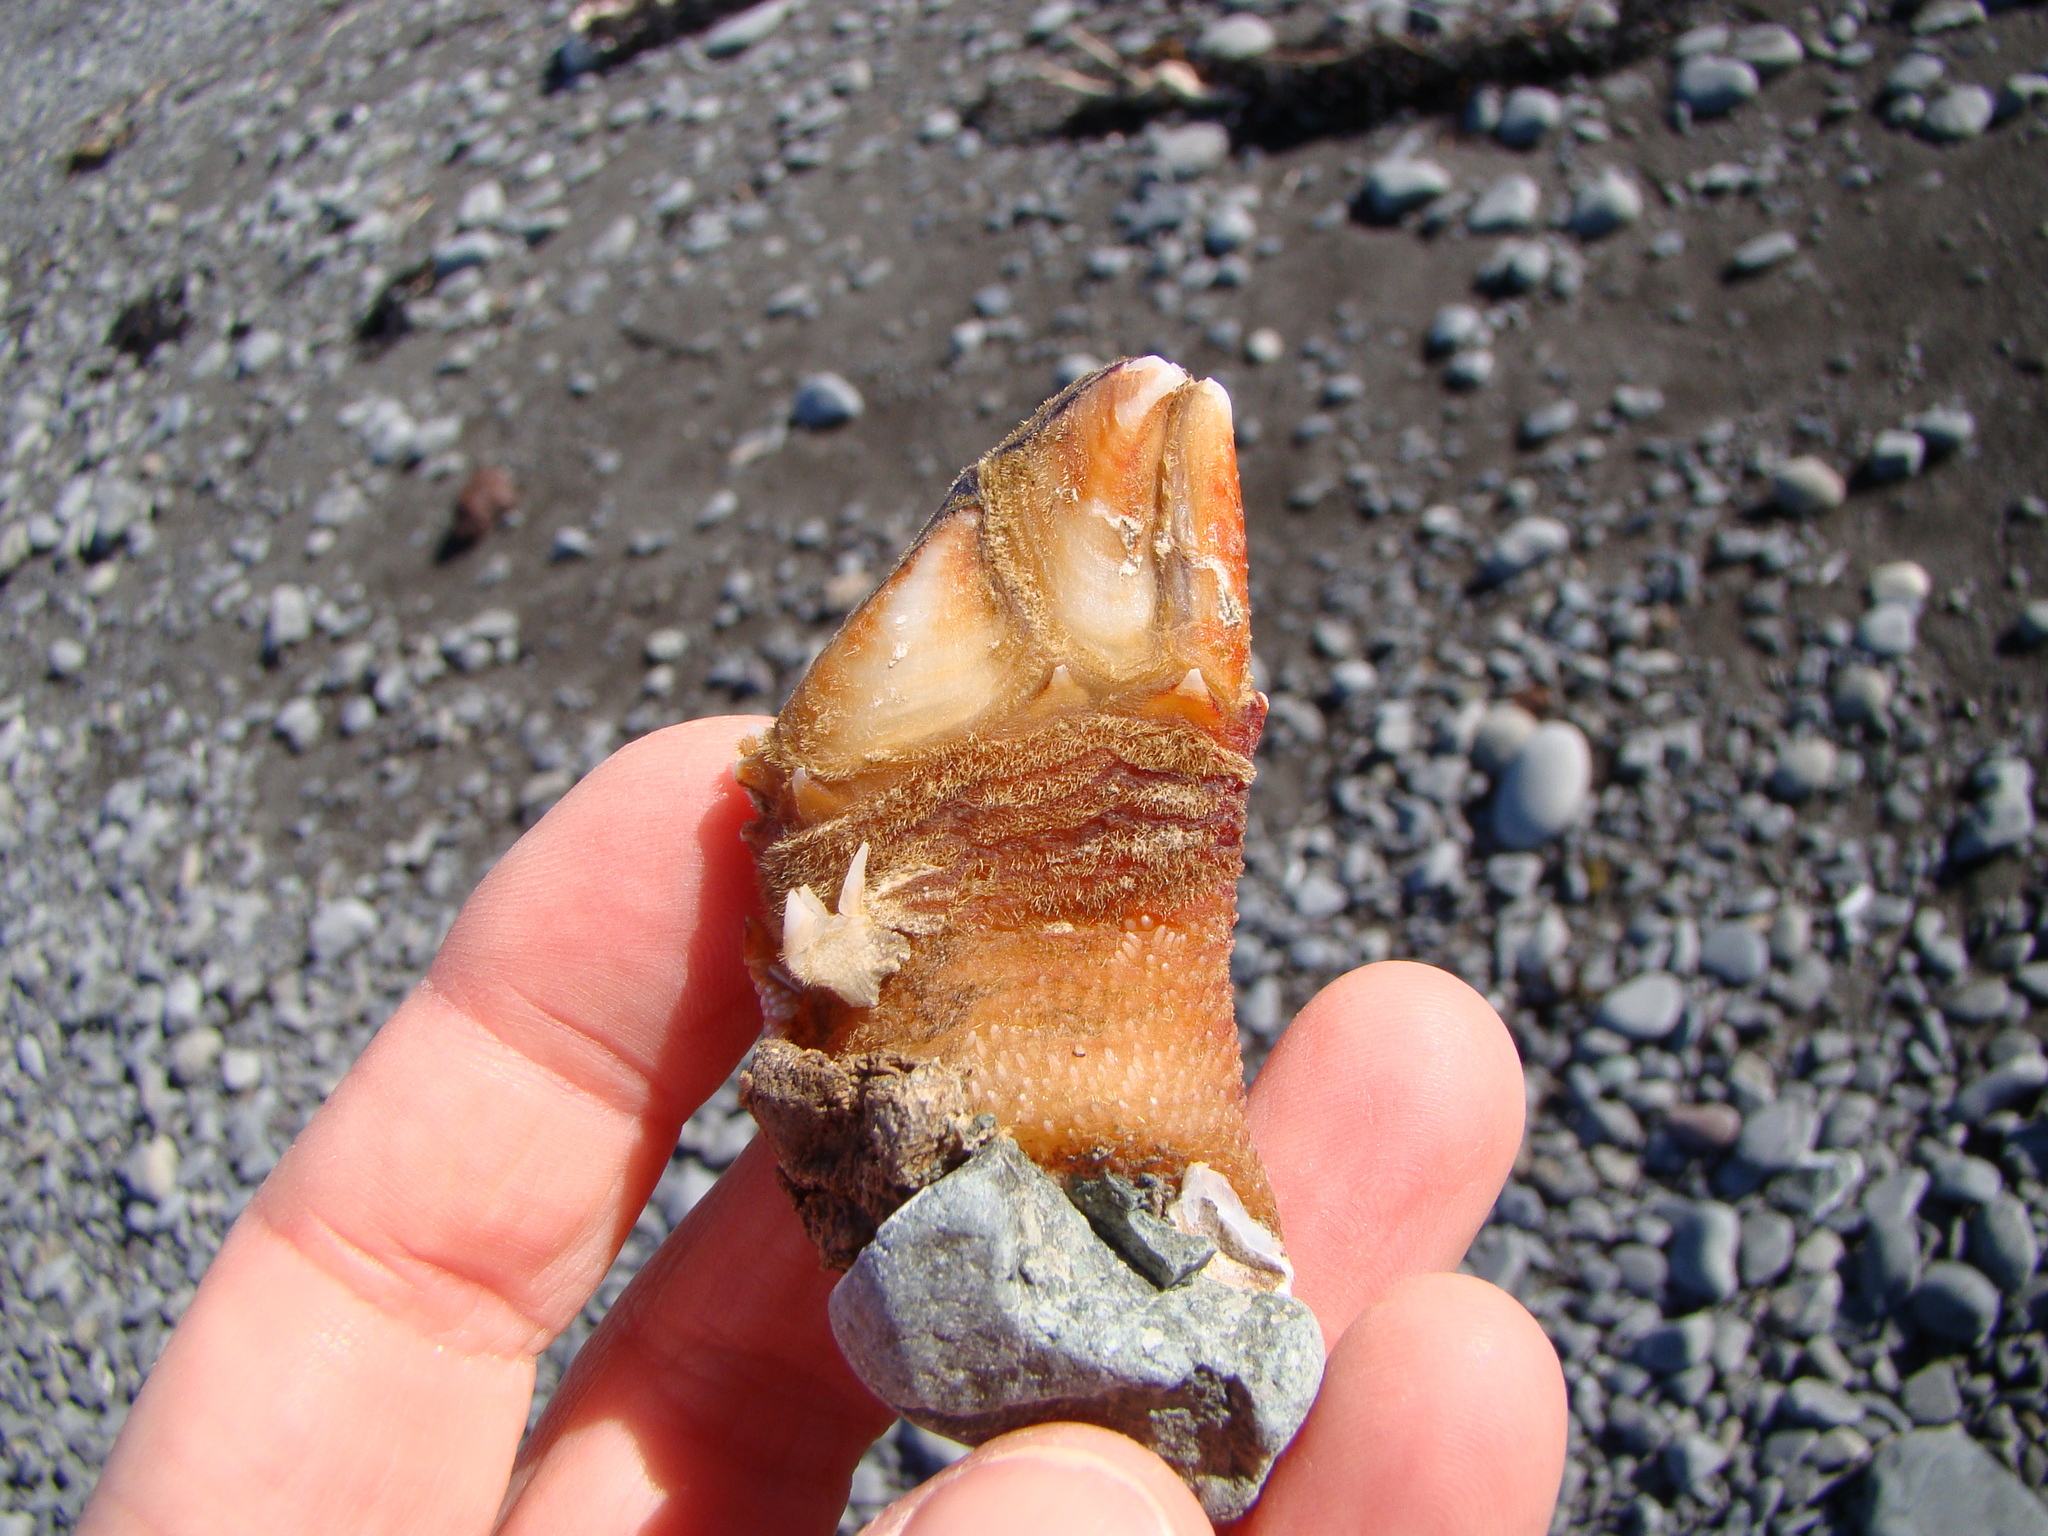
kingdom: Animalia
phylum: Arthropoda
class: Maxillopoda
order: Pedunculata
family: Calanticidae
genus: Calantica
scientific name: Calantica villosa
